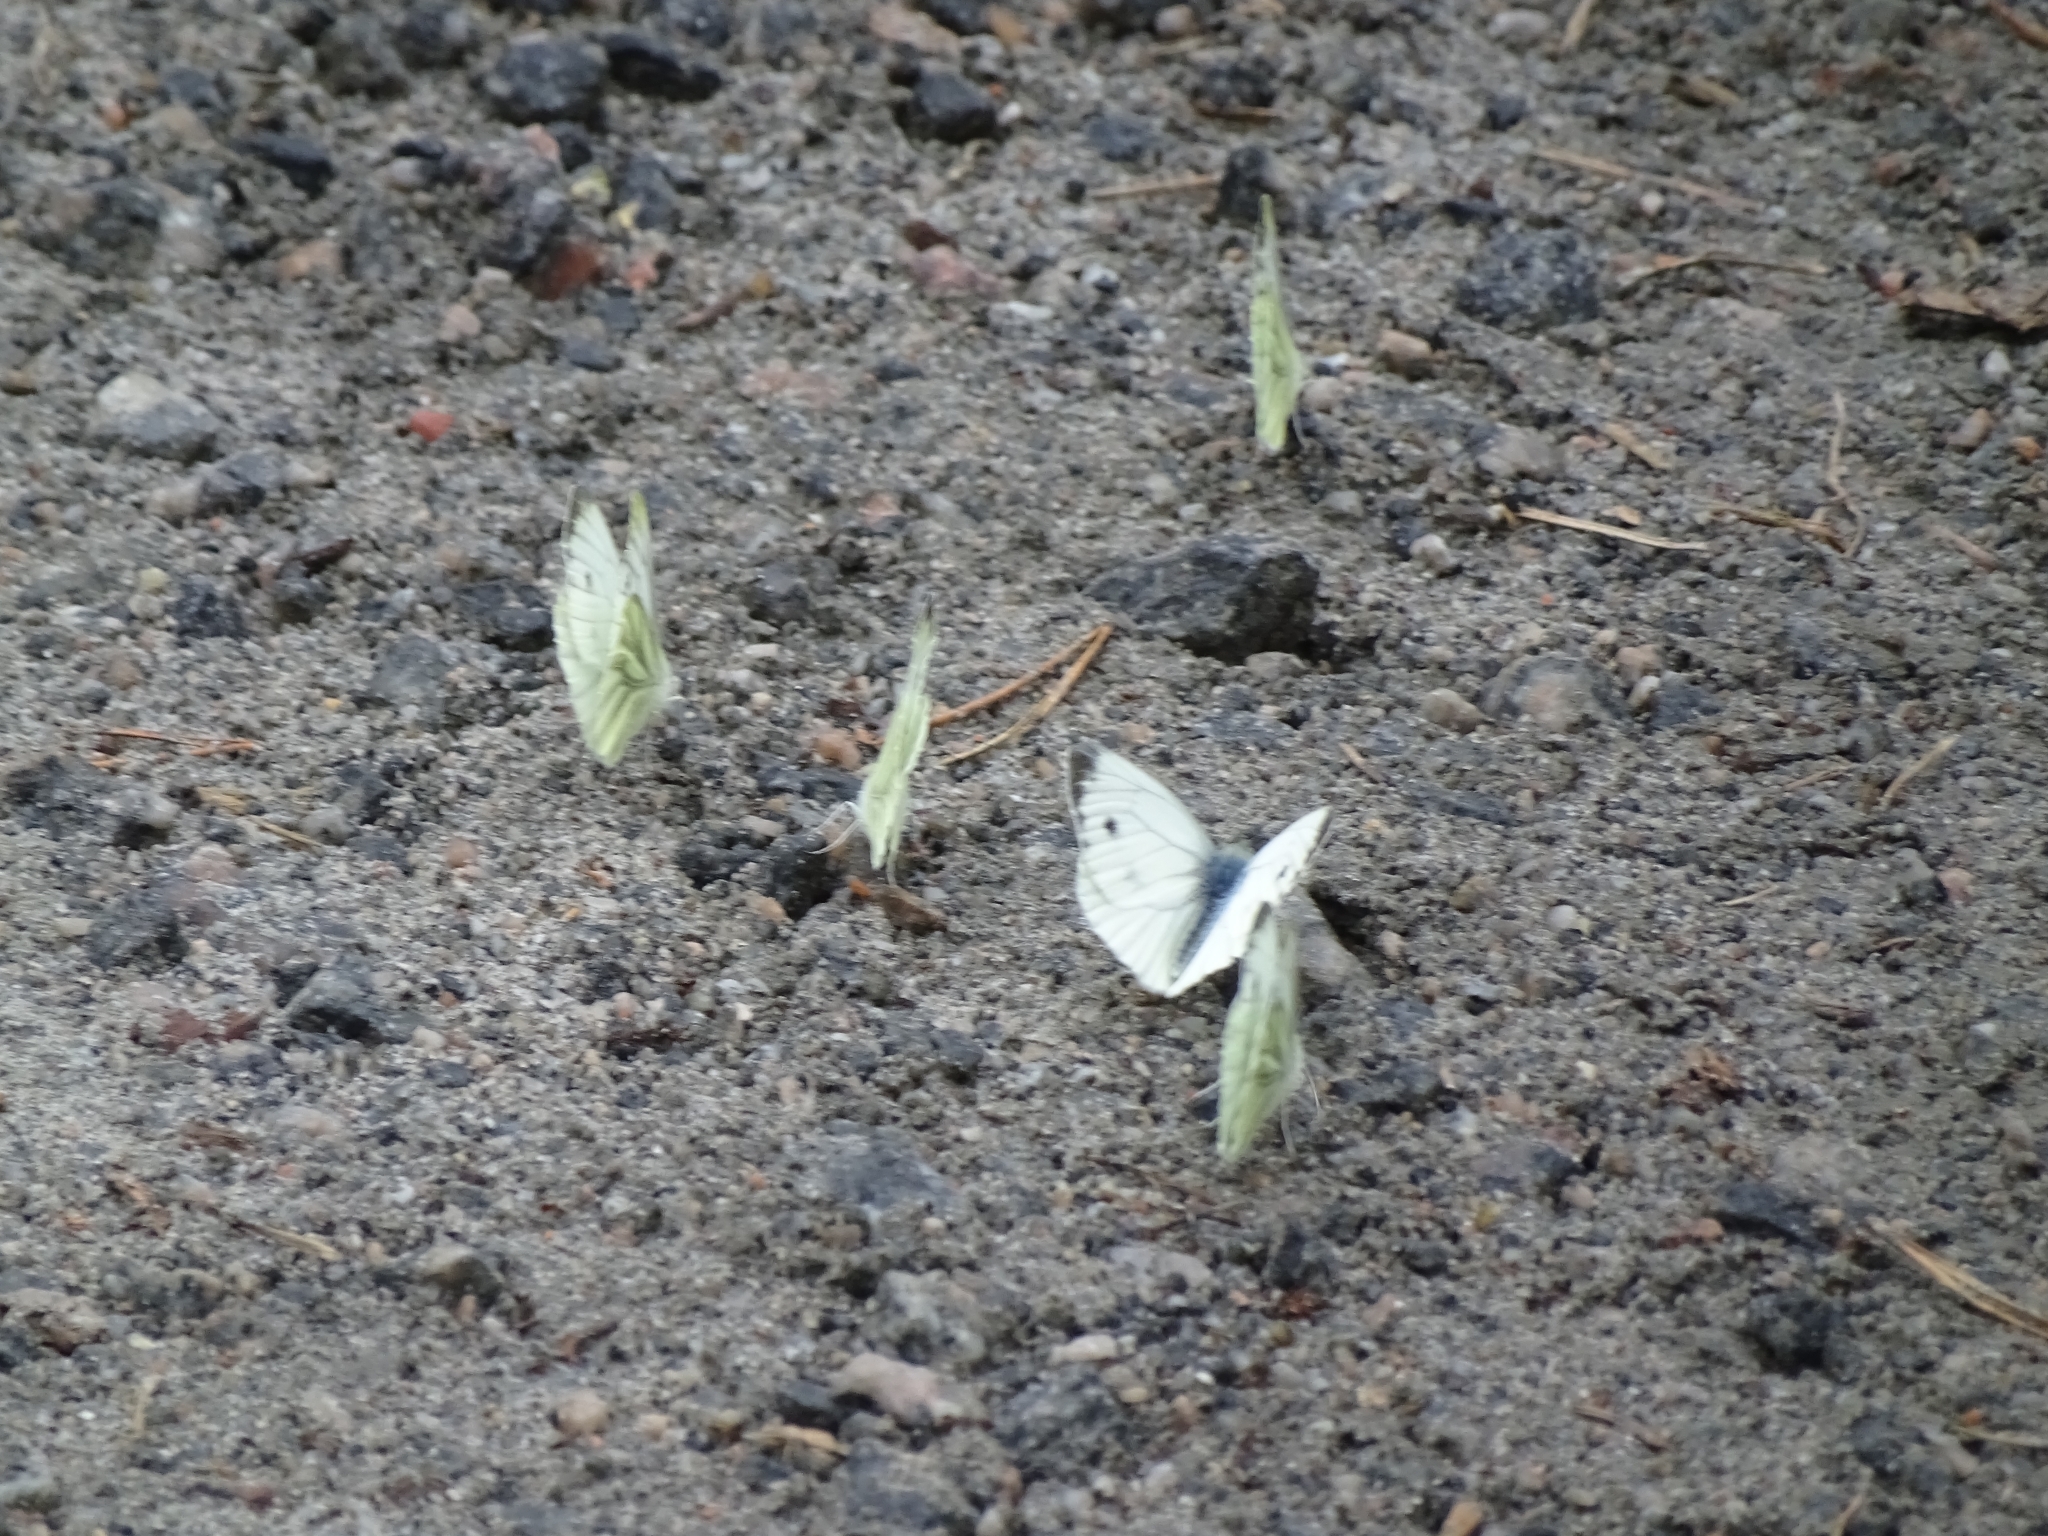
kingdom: Animalia
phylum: Arthropoda
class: Insecta
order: Lepidoptera
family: Pieridae
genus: Pieris
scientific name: Pieris napi
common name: Green-veined white
